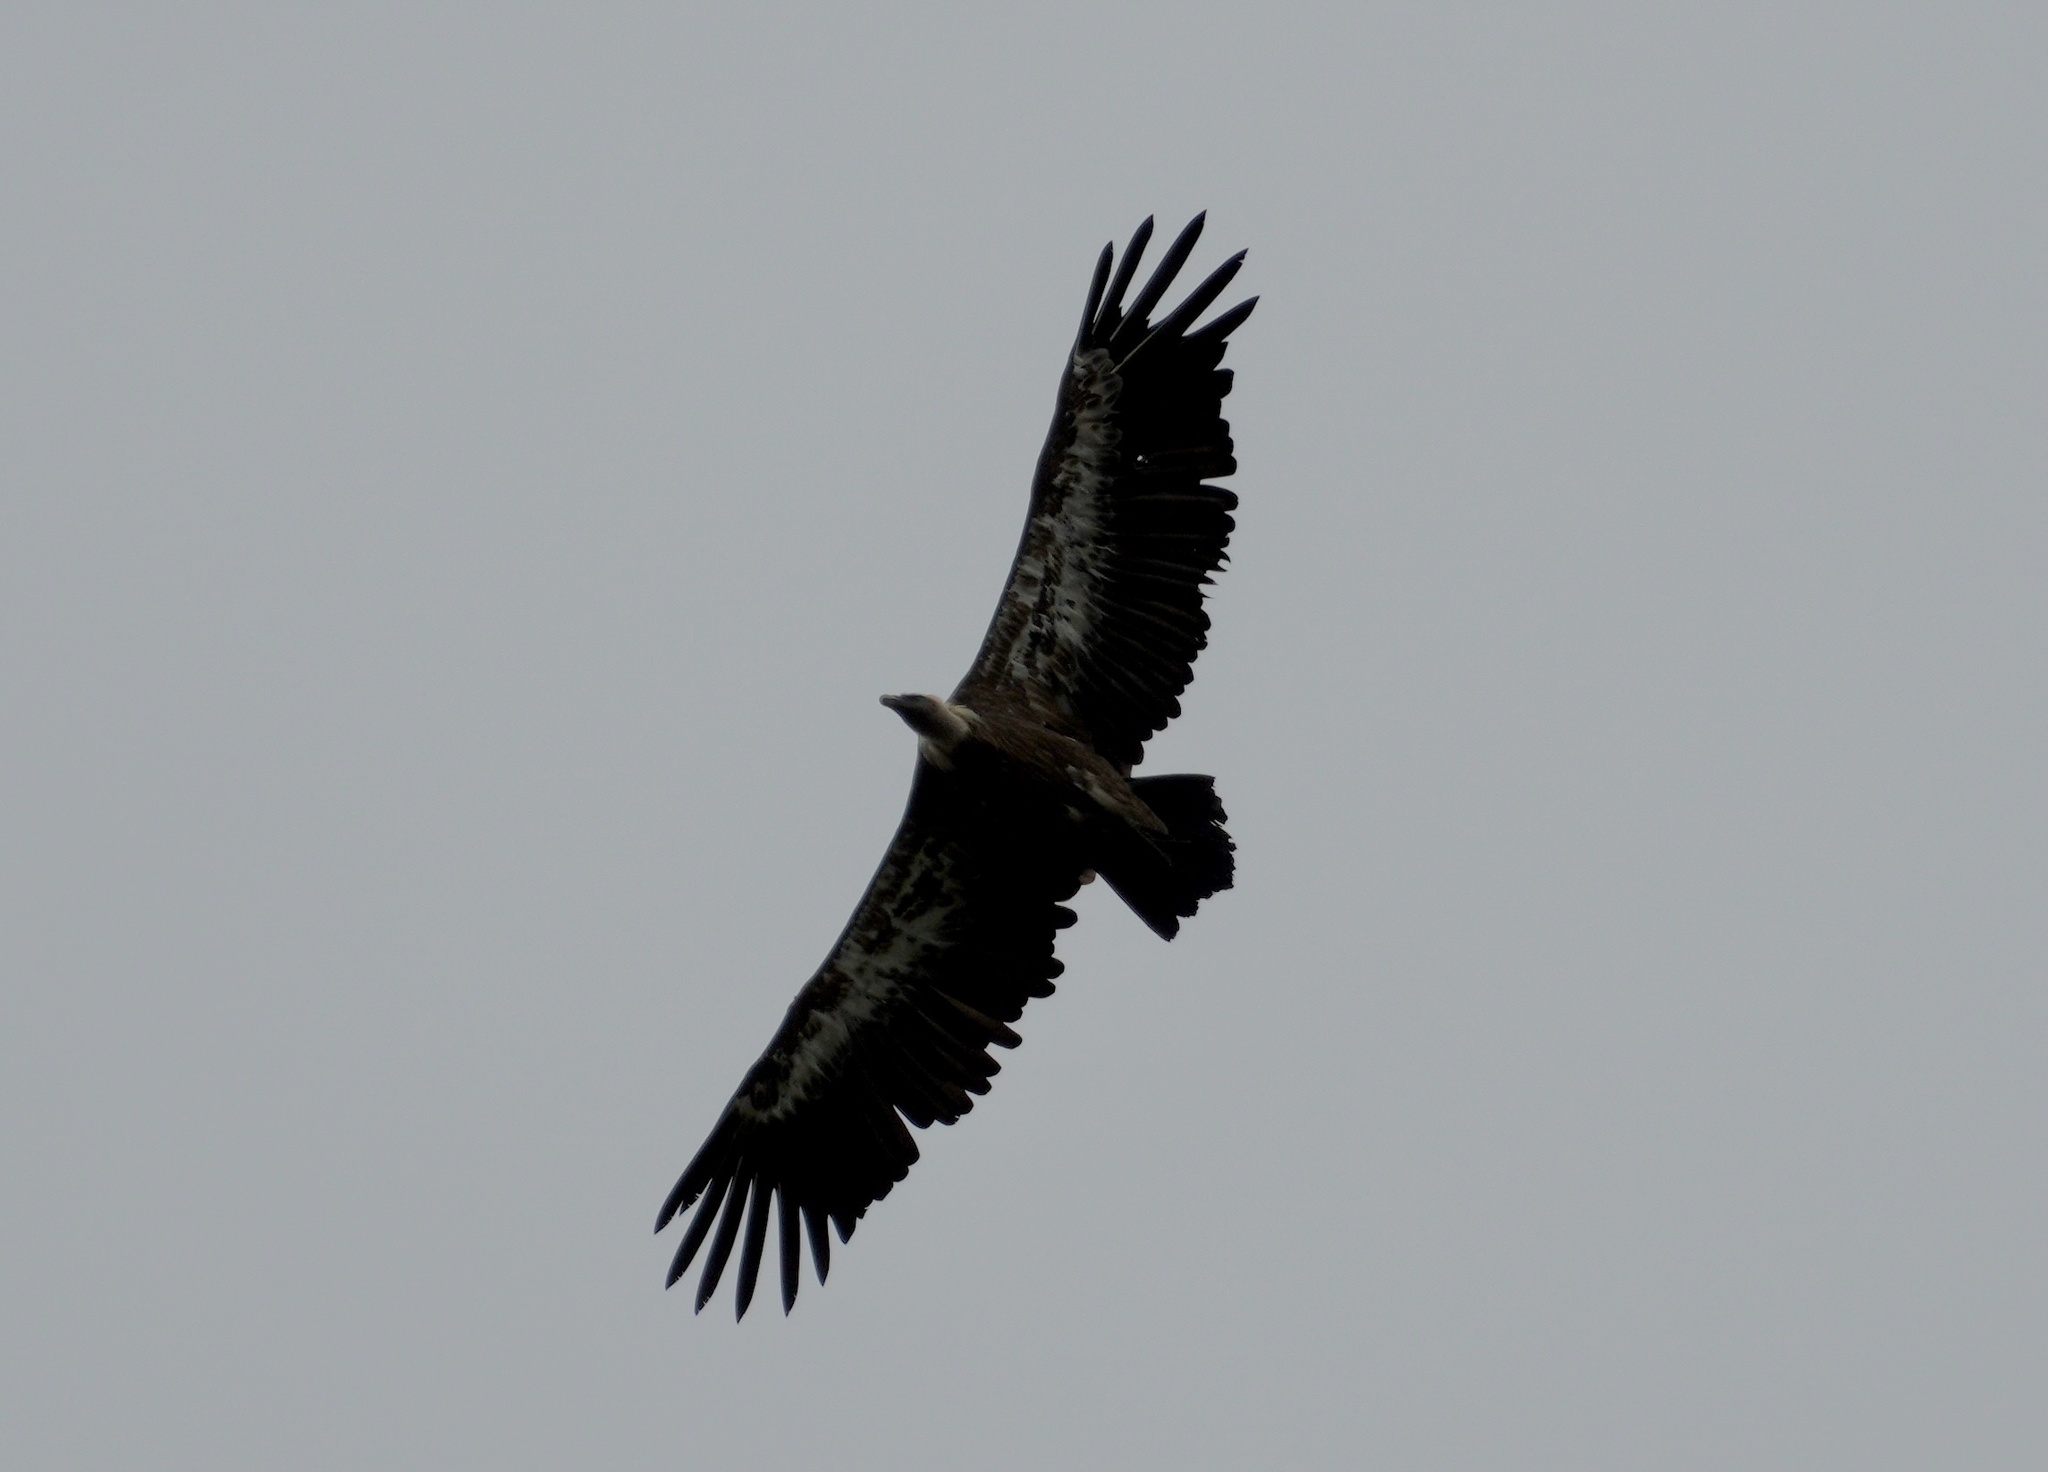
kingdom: Animalia
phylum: Chordata
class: Aves
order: Accipitriformes
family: Accipitridae
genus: Gyps
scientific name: Gyps fulvus
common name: Griffon vulture
